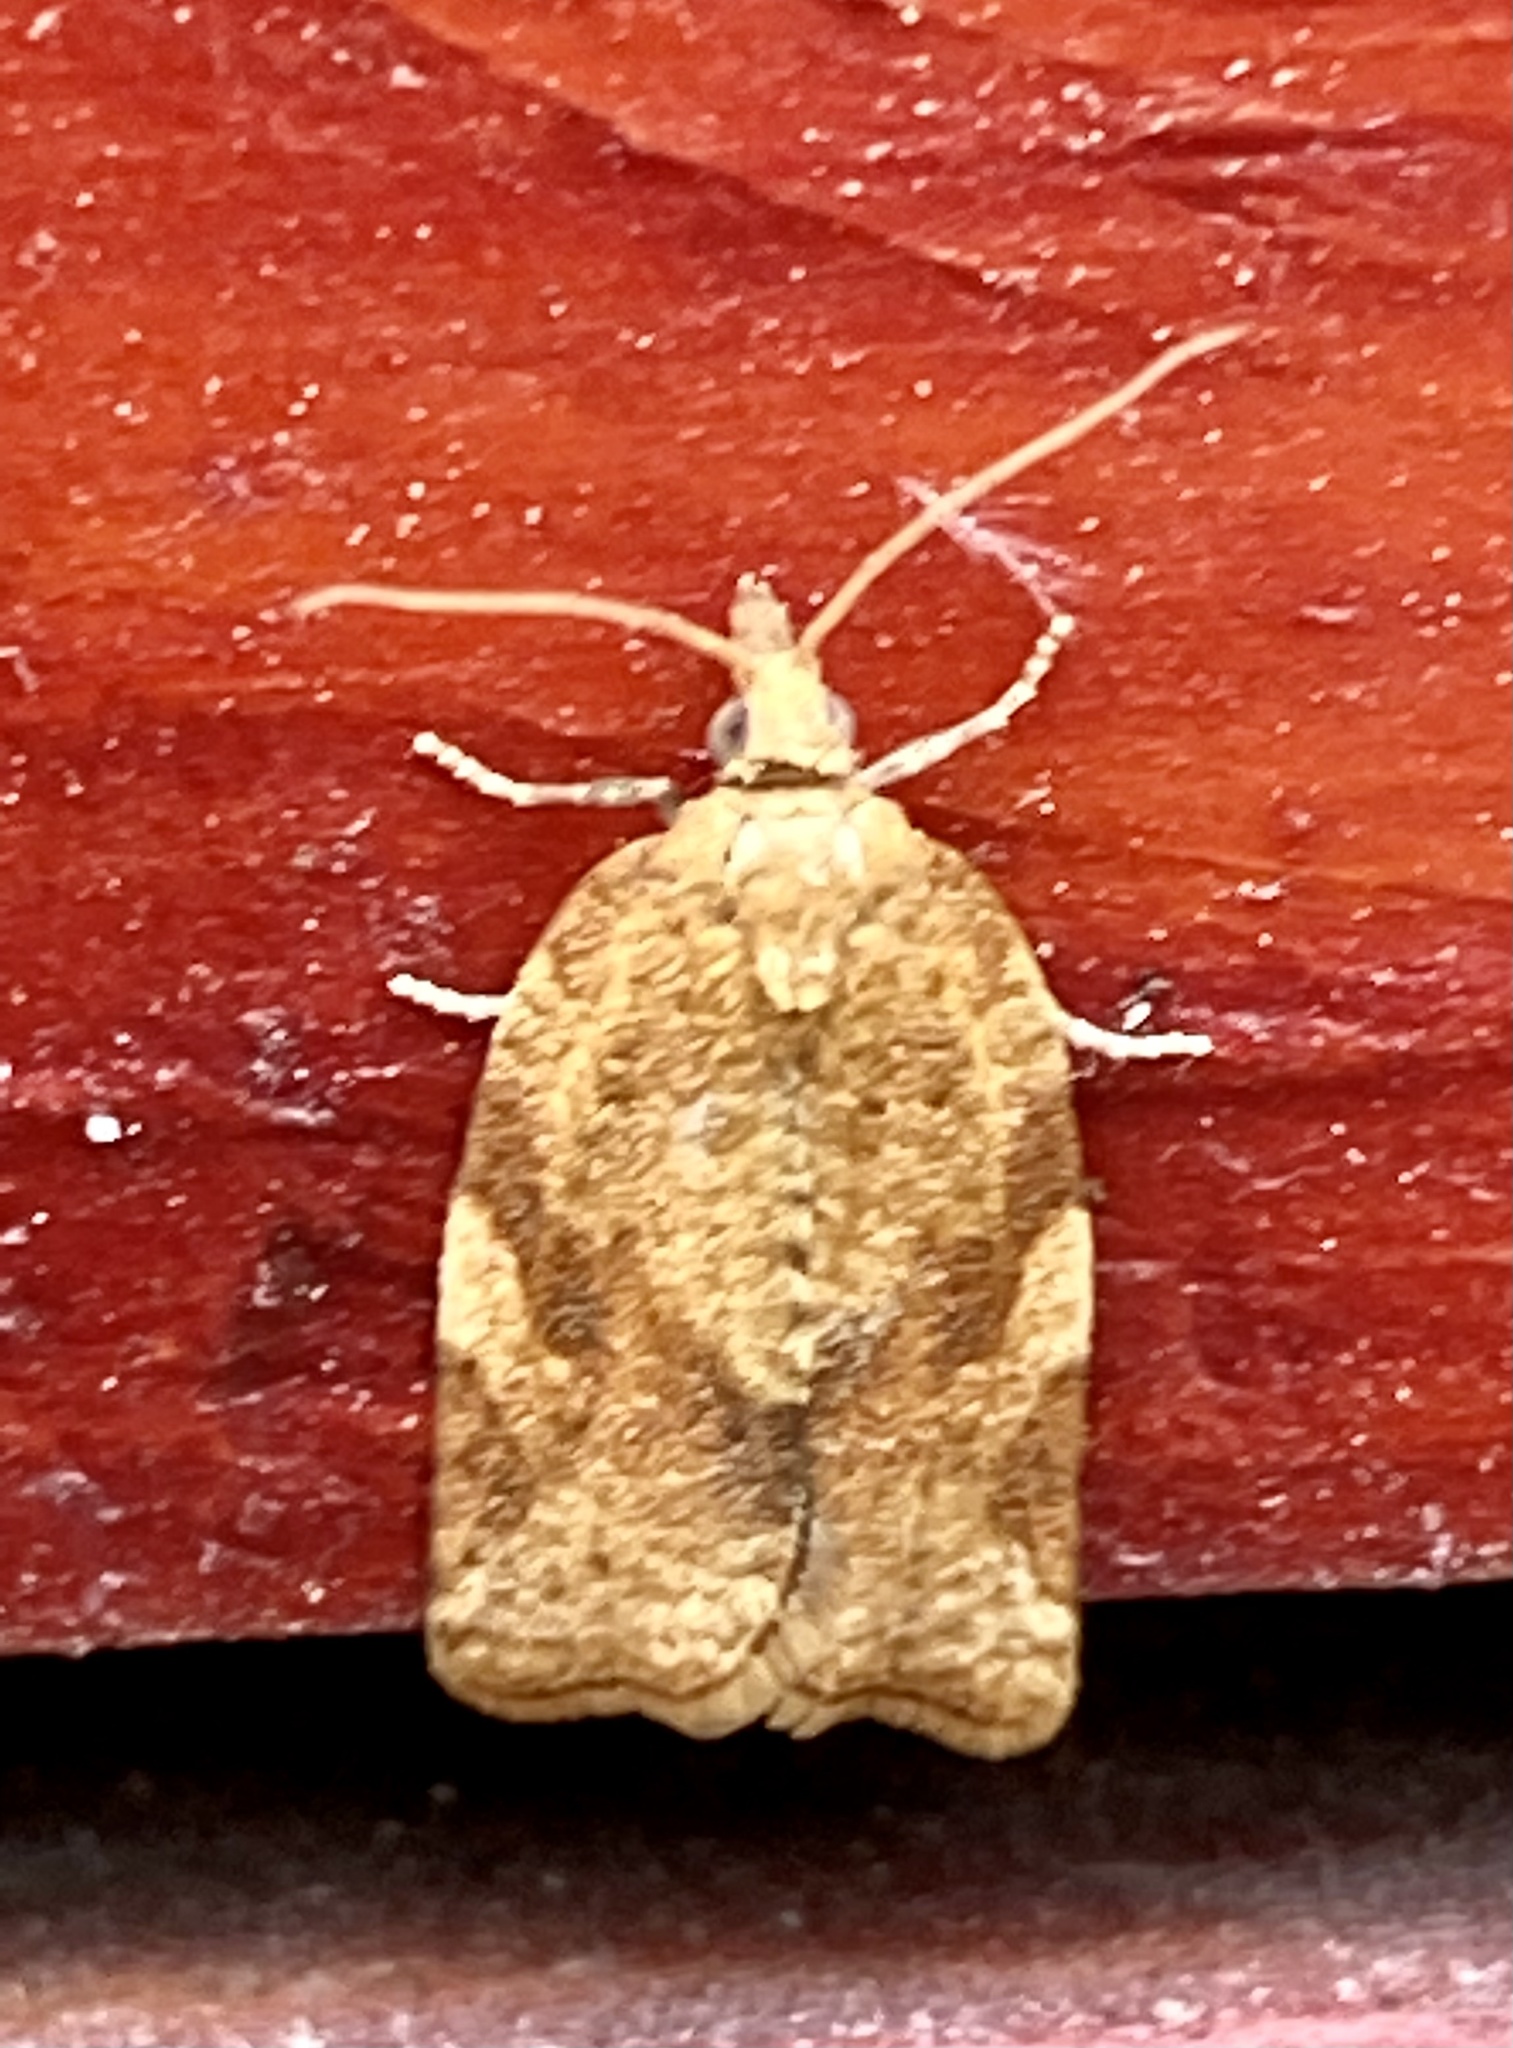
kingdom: Animalia
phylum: Arthropoda
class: Insecta
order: Lepidoptera
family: Tortricidae
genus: Argyrotaenia
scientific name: Argyrotaenia franciscana
